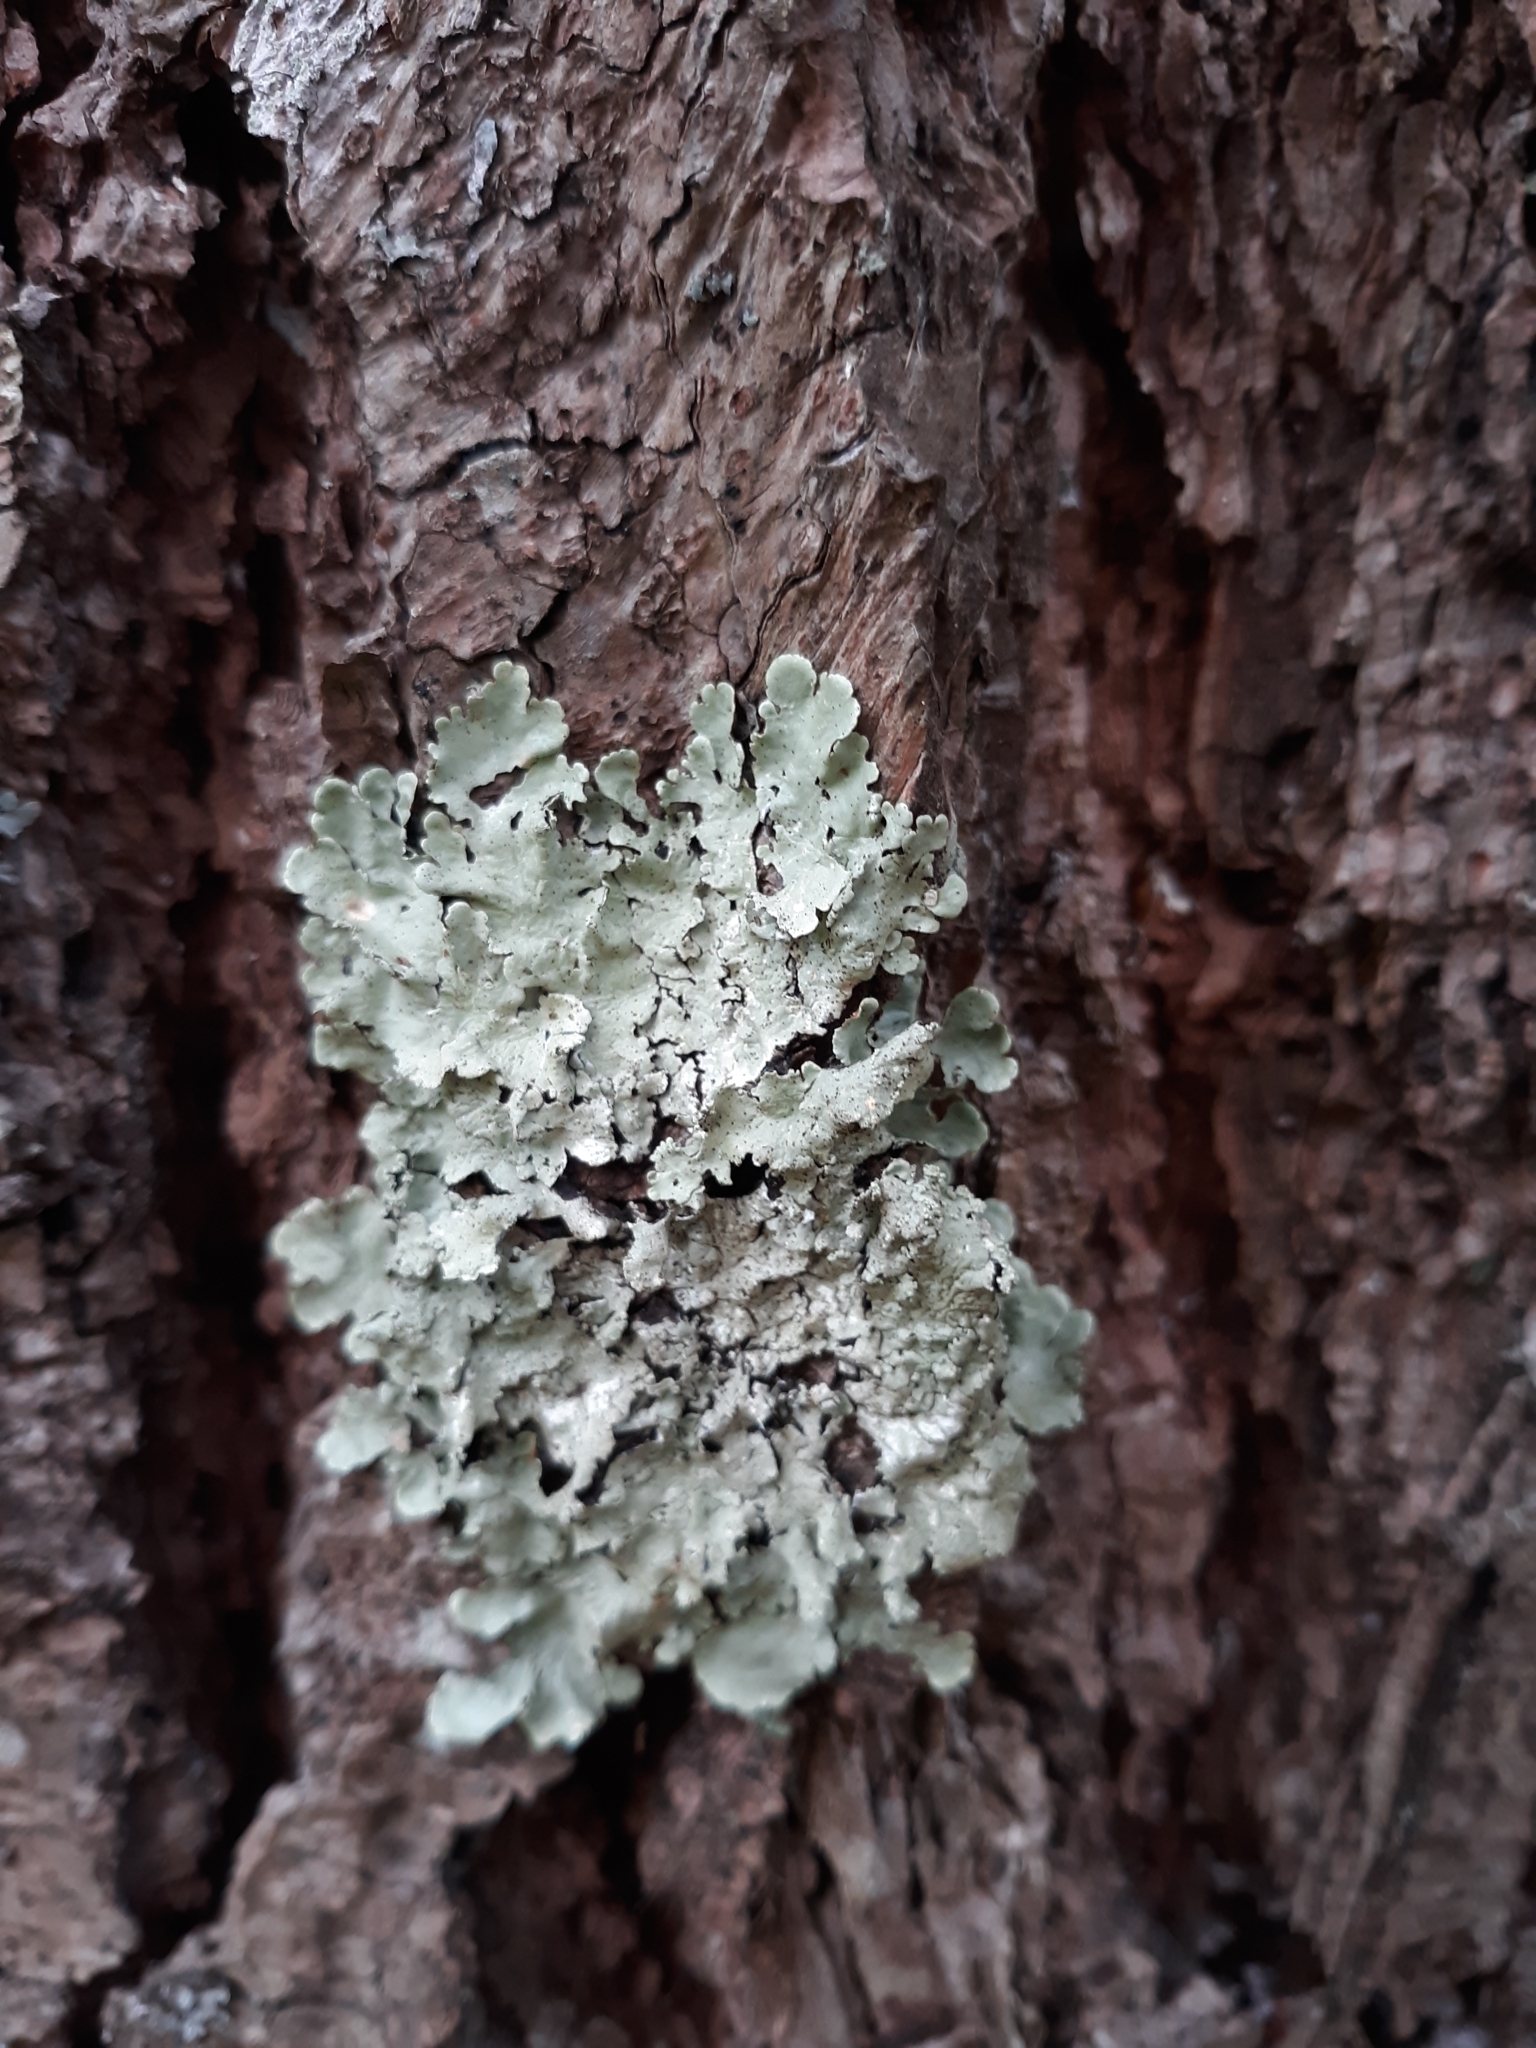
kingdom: Fungi
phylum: Ascomycota
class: Lecanoromycetes
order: Lecanorales
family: Parmeliaceae
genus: Flavoparmelia
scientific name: Flavoparmelia caperata
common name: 40-mile per hour lichen
